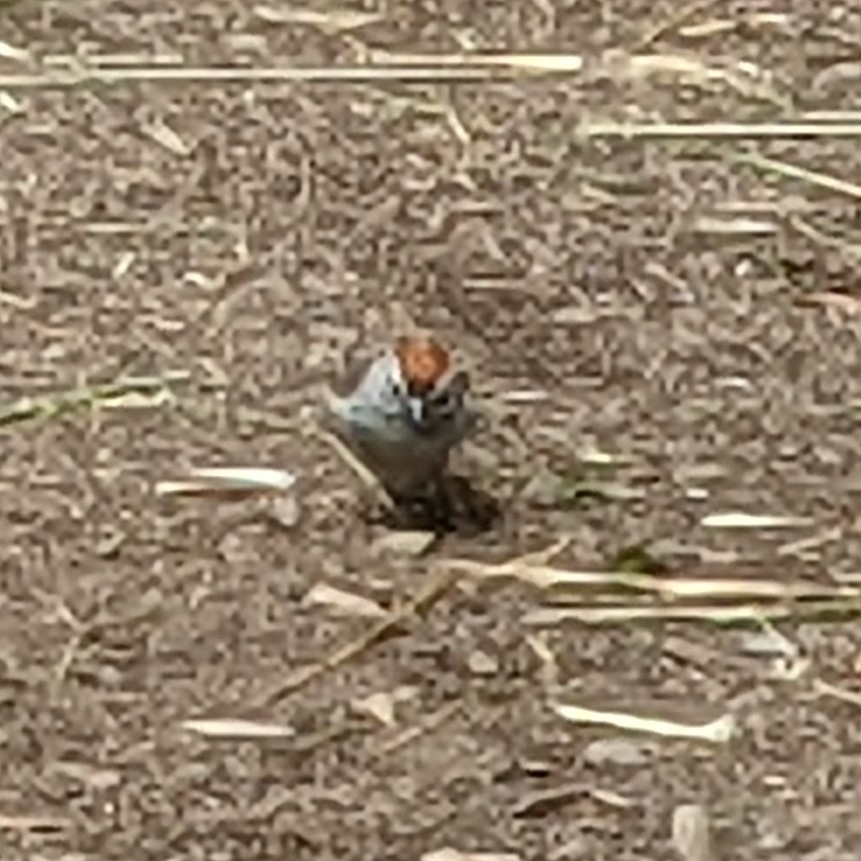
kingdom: Animalia
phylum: Chordata
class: Aves
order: Passeriformes
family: Passerellidae
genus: Spizella
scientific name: Spizella passerina
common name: Chipping sparrow
